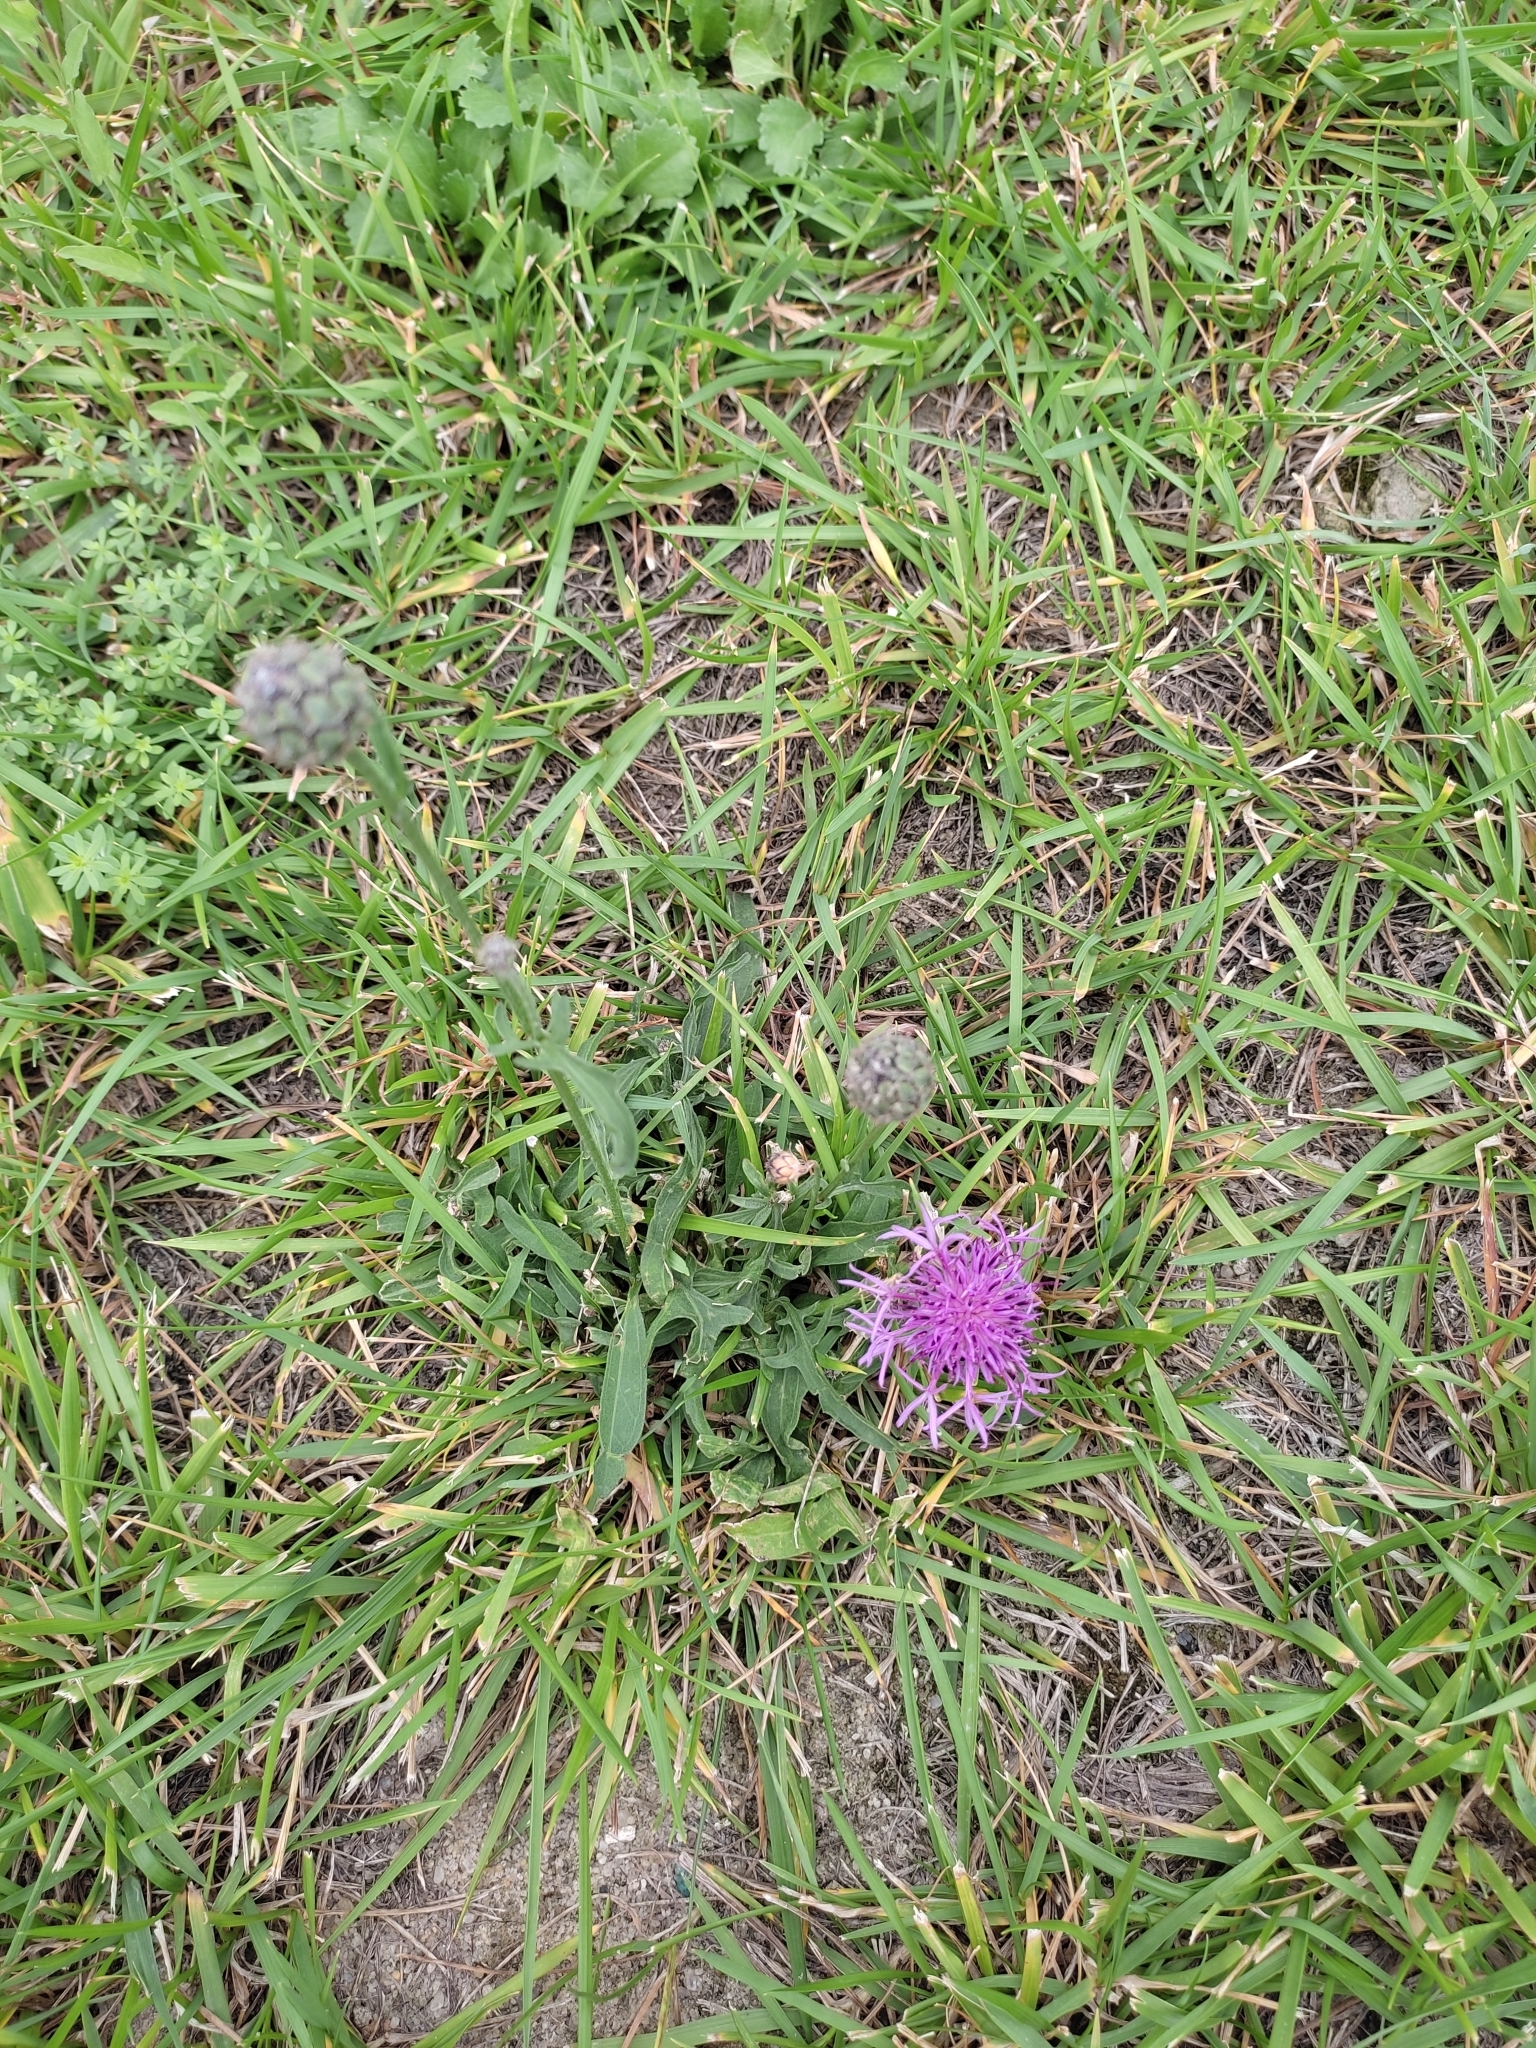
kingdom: Plantae
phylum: Tracheophyta
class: Magnoliopsida
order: Asterales
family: Asteraceae
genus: Centaurea
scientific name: Centaurea scabiosa
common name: Greater knapweed
